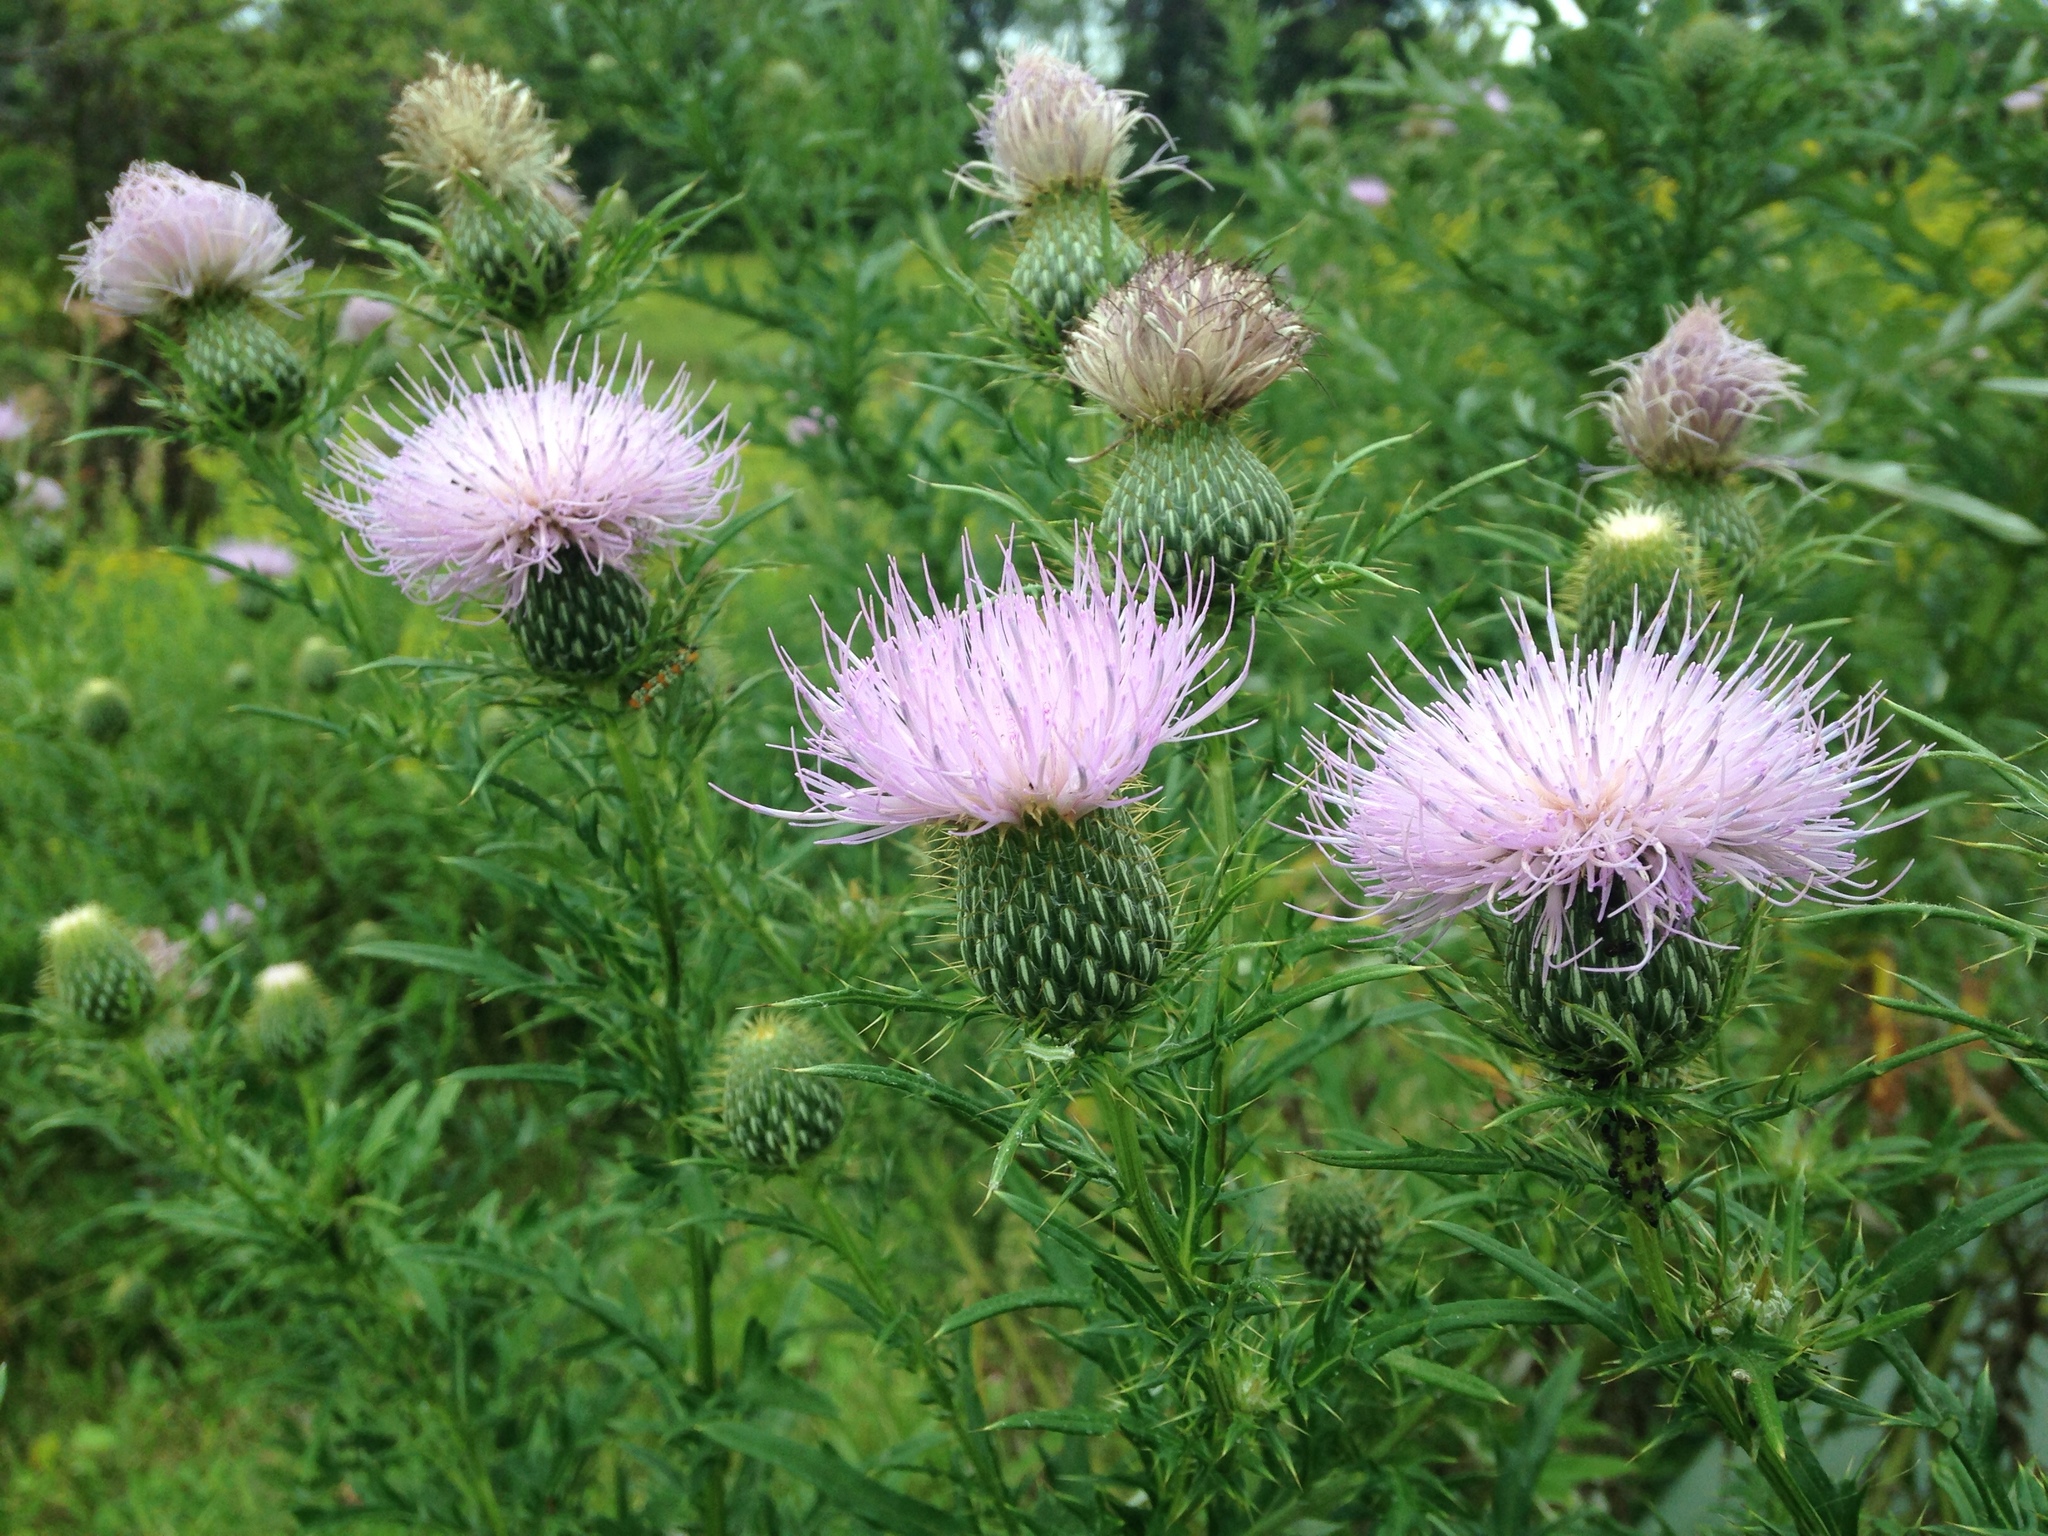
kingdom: Plantae
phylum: Tracheophyta
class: Magnoliopsida
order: Asterales
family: Asteraceae
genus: Cirsium
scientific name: Cirsium discolor
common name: Field thistle
